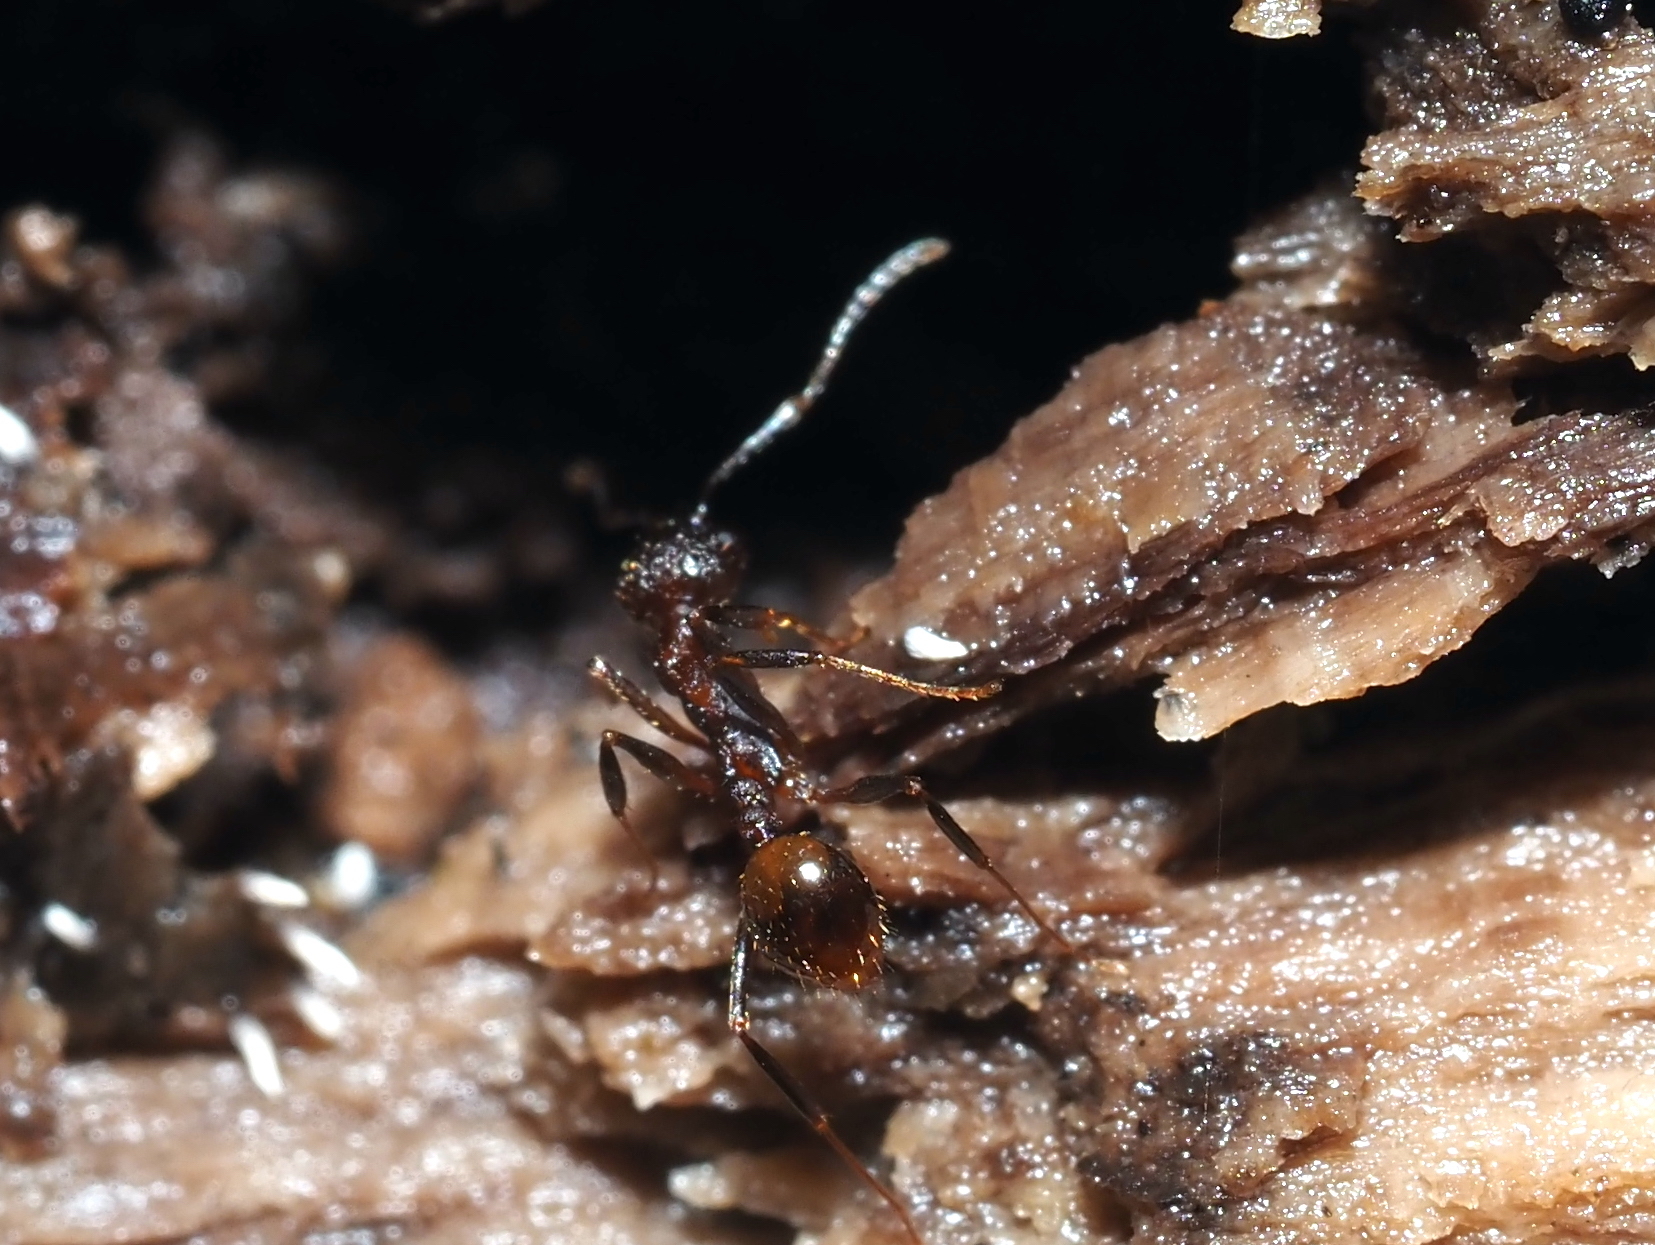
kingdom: Animalia
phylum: Arthropoda
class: Insecta
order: Hymenoptera
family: Formicidae
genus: Aphaenogaster
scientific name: Aphaenogaster fulva
